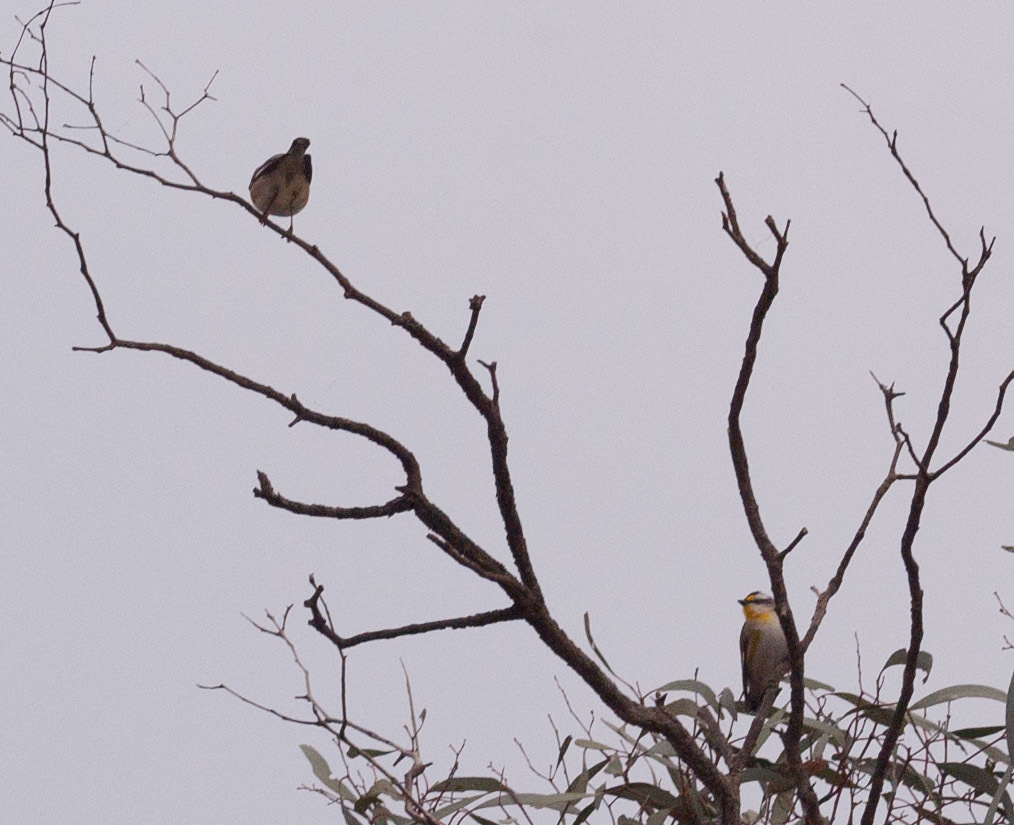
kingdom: Animalia
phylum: Chordata
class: Aves
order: Passeriformes
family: Pardalotidae
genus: Pardalotus
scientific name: Pardalotus striatus
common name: Striated pardalote
